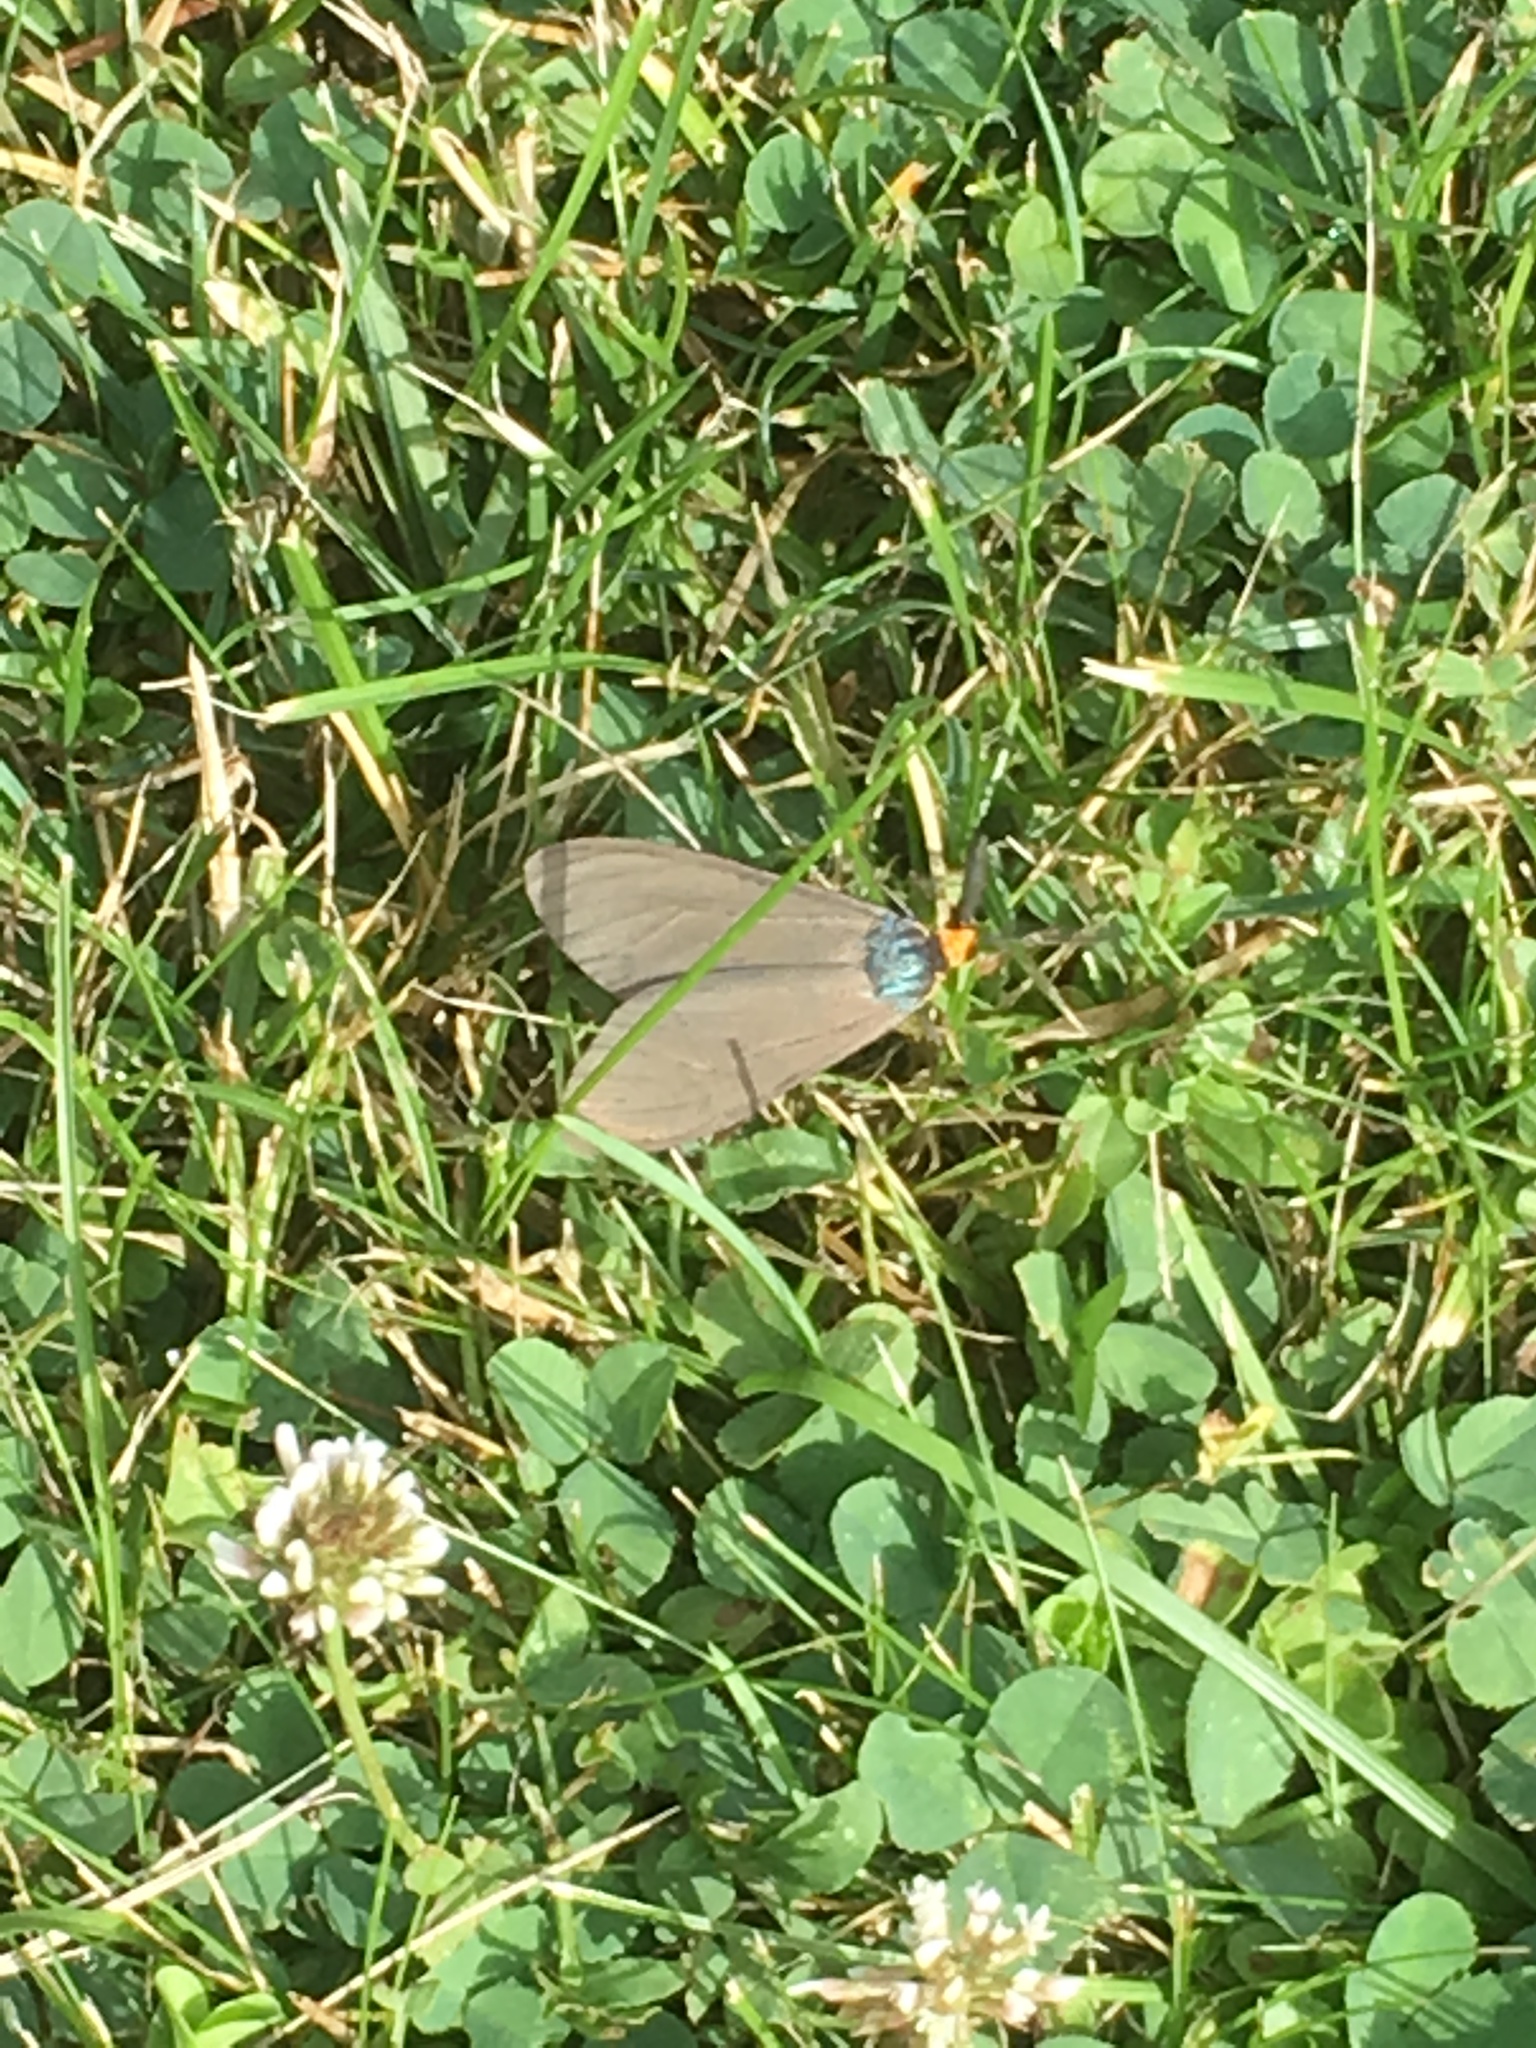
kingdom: Animalia
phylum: Arthropoda
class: Insecta
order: Lepidoptera
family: Erebidae
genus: Ctenucha
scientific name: Ctenucha virginica
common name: Virginia ctenucha moth
